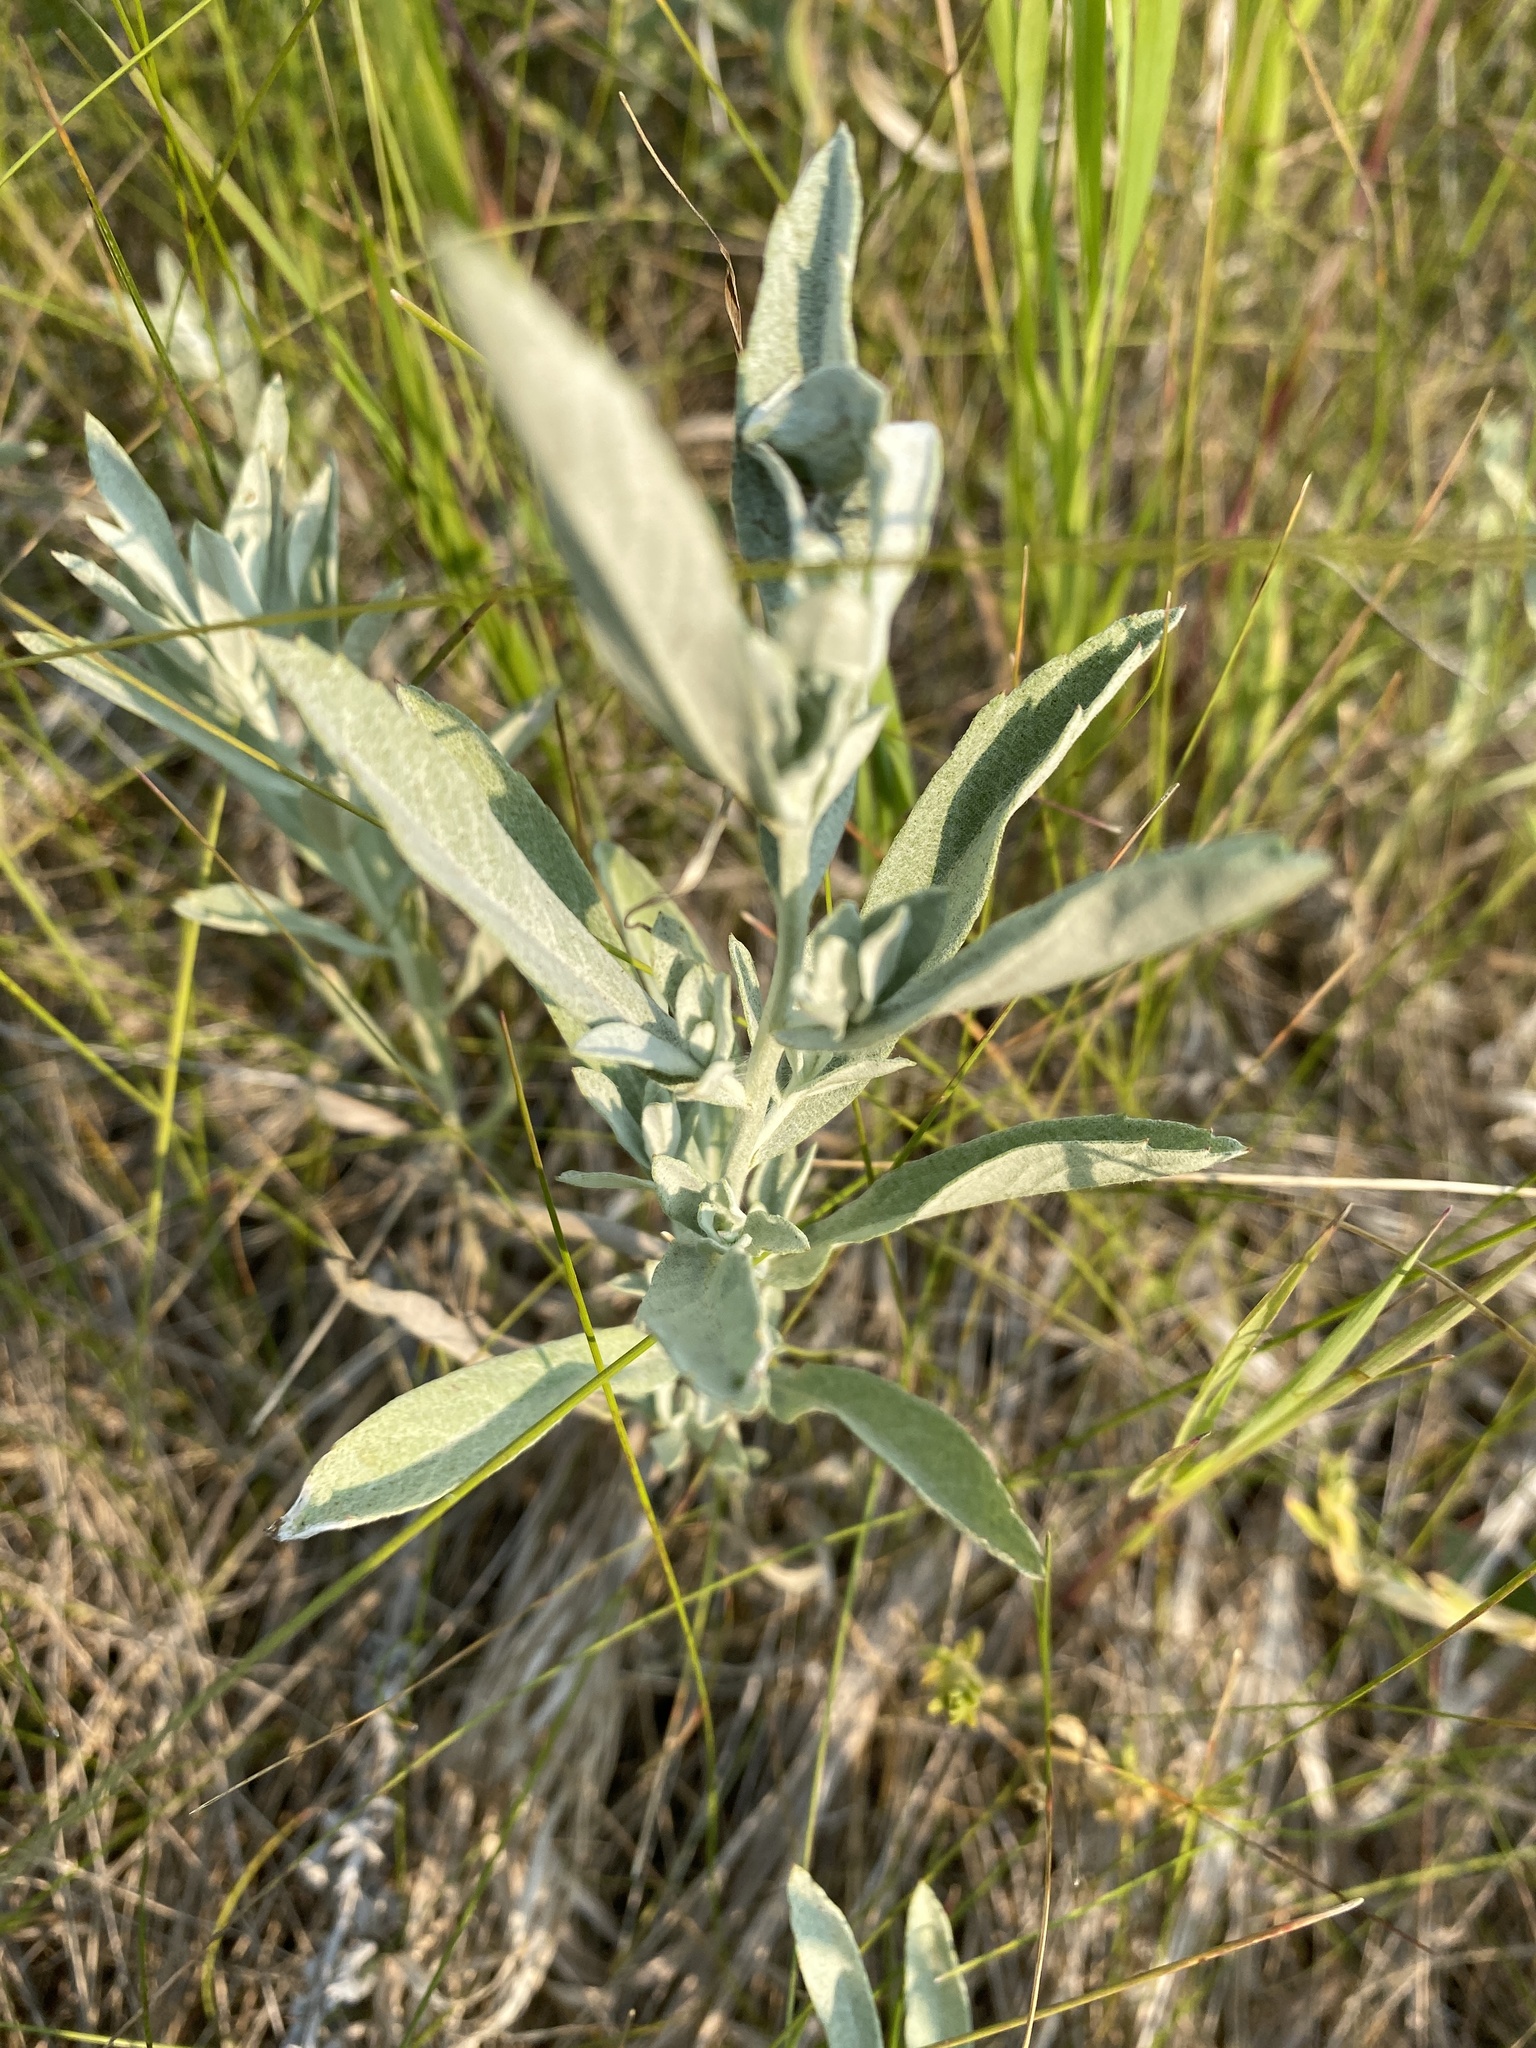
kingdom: Plantae
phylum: Tracheophyta
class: Magnoliopsida
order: Asterales
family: Asteraceae
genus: Artemisia
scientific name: Artemisia ludoviciana
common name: Western mugwort
